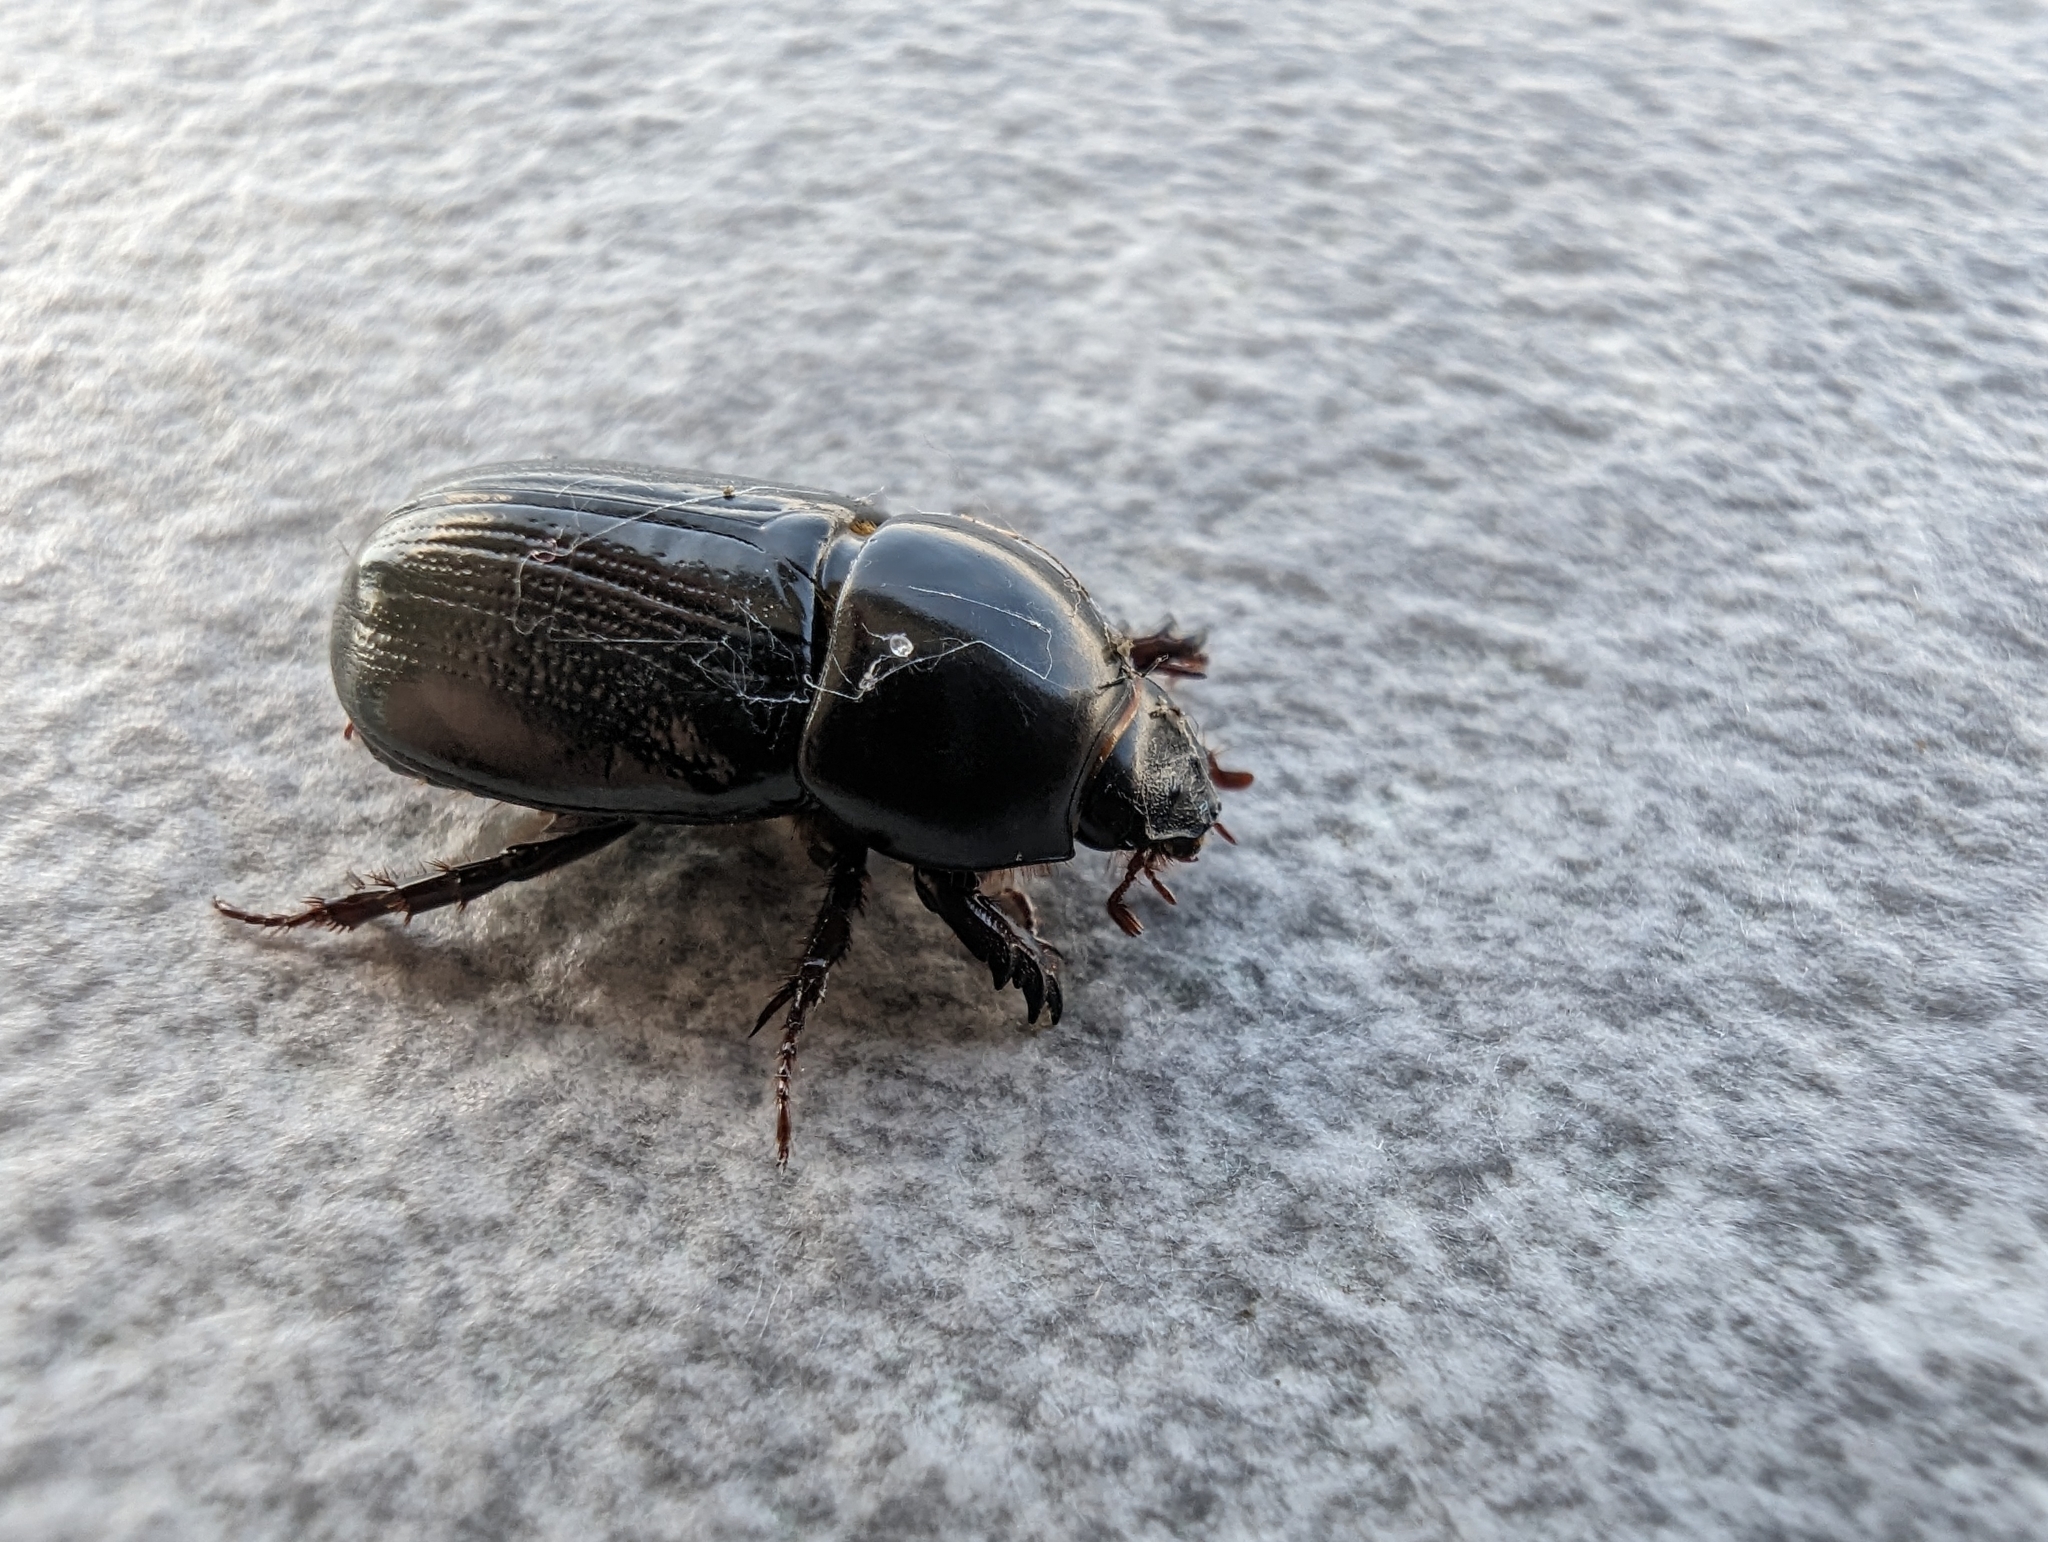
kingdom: Animalia
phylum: Arthropoda
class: Insecta
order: Coleoptera
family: Scarabaeidae
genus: Heteronychus
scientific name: Heteronychus arator
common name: African black beetle
